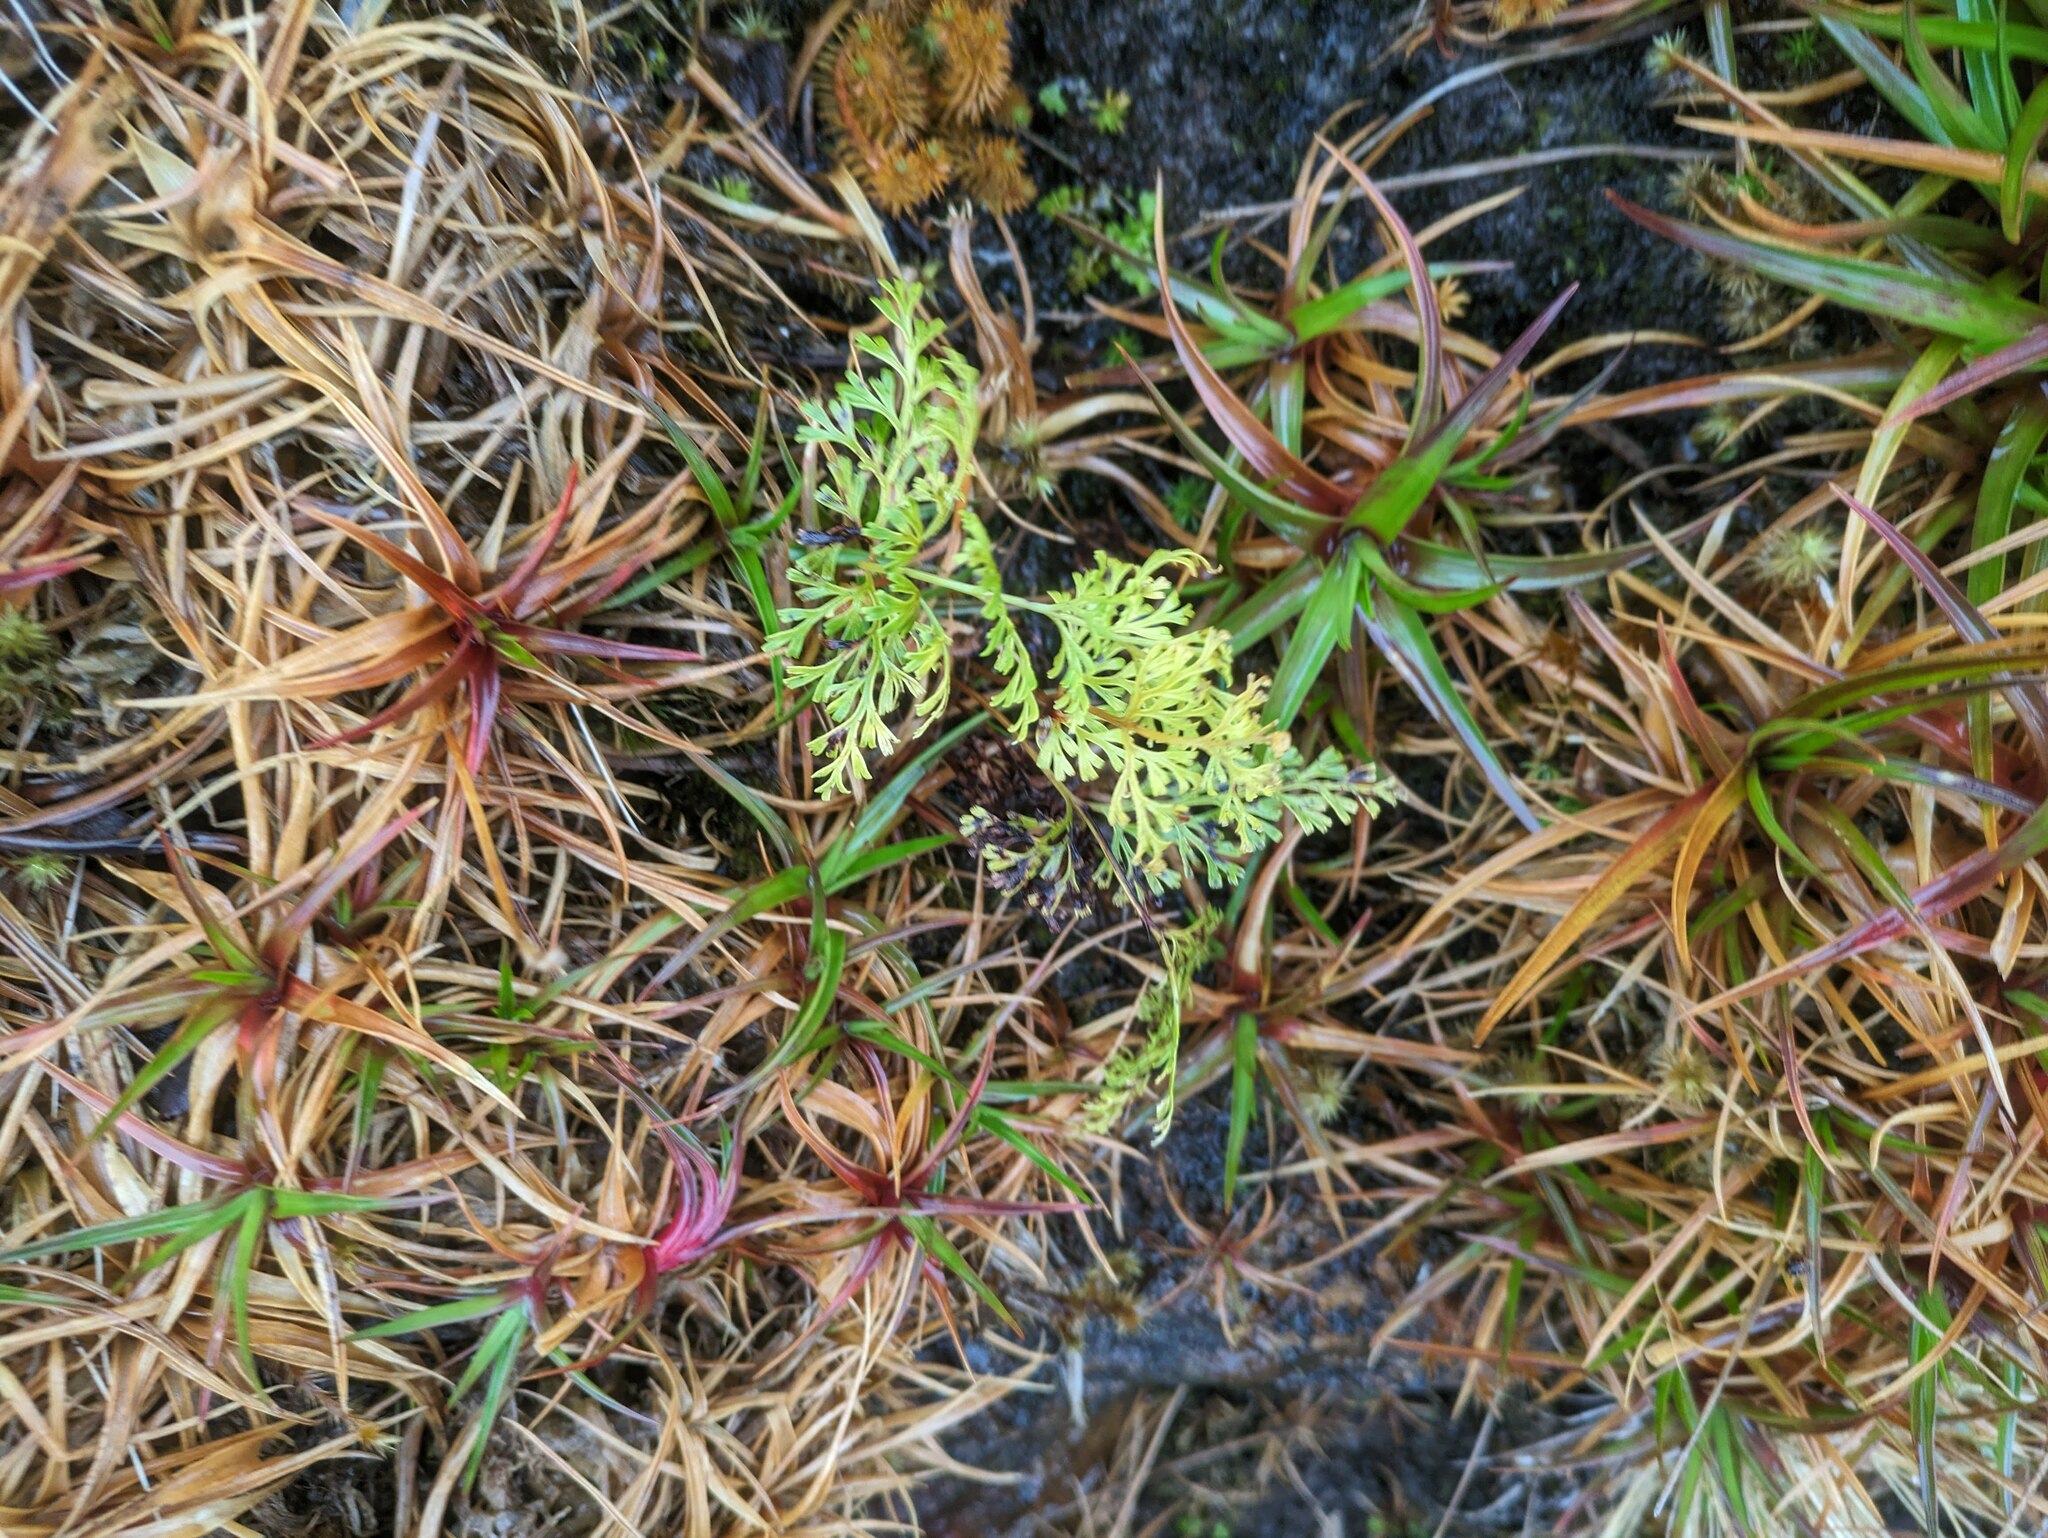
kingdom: Plantae
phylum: Tracheophyta
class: Polypodiopsida
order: Polypodiales
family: Lindsaeaceae
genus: Odontosoria
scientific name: Odontosoria chinensis
